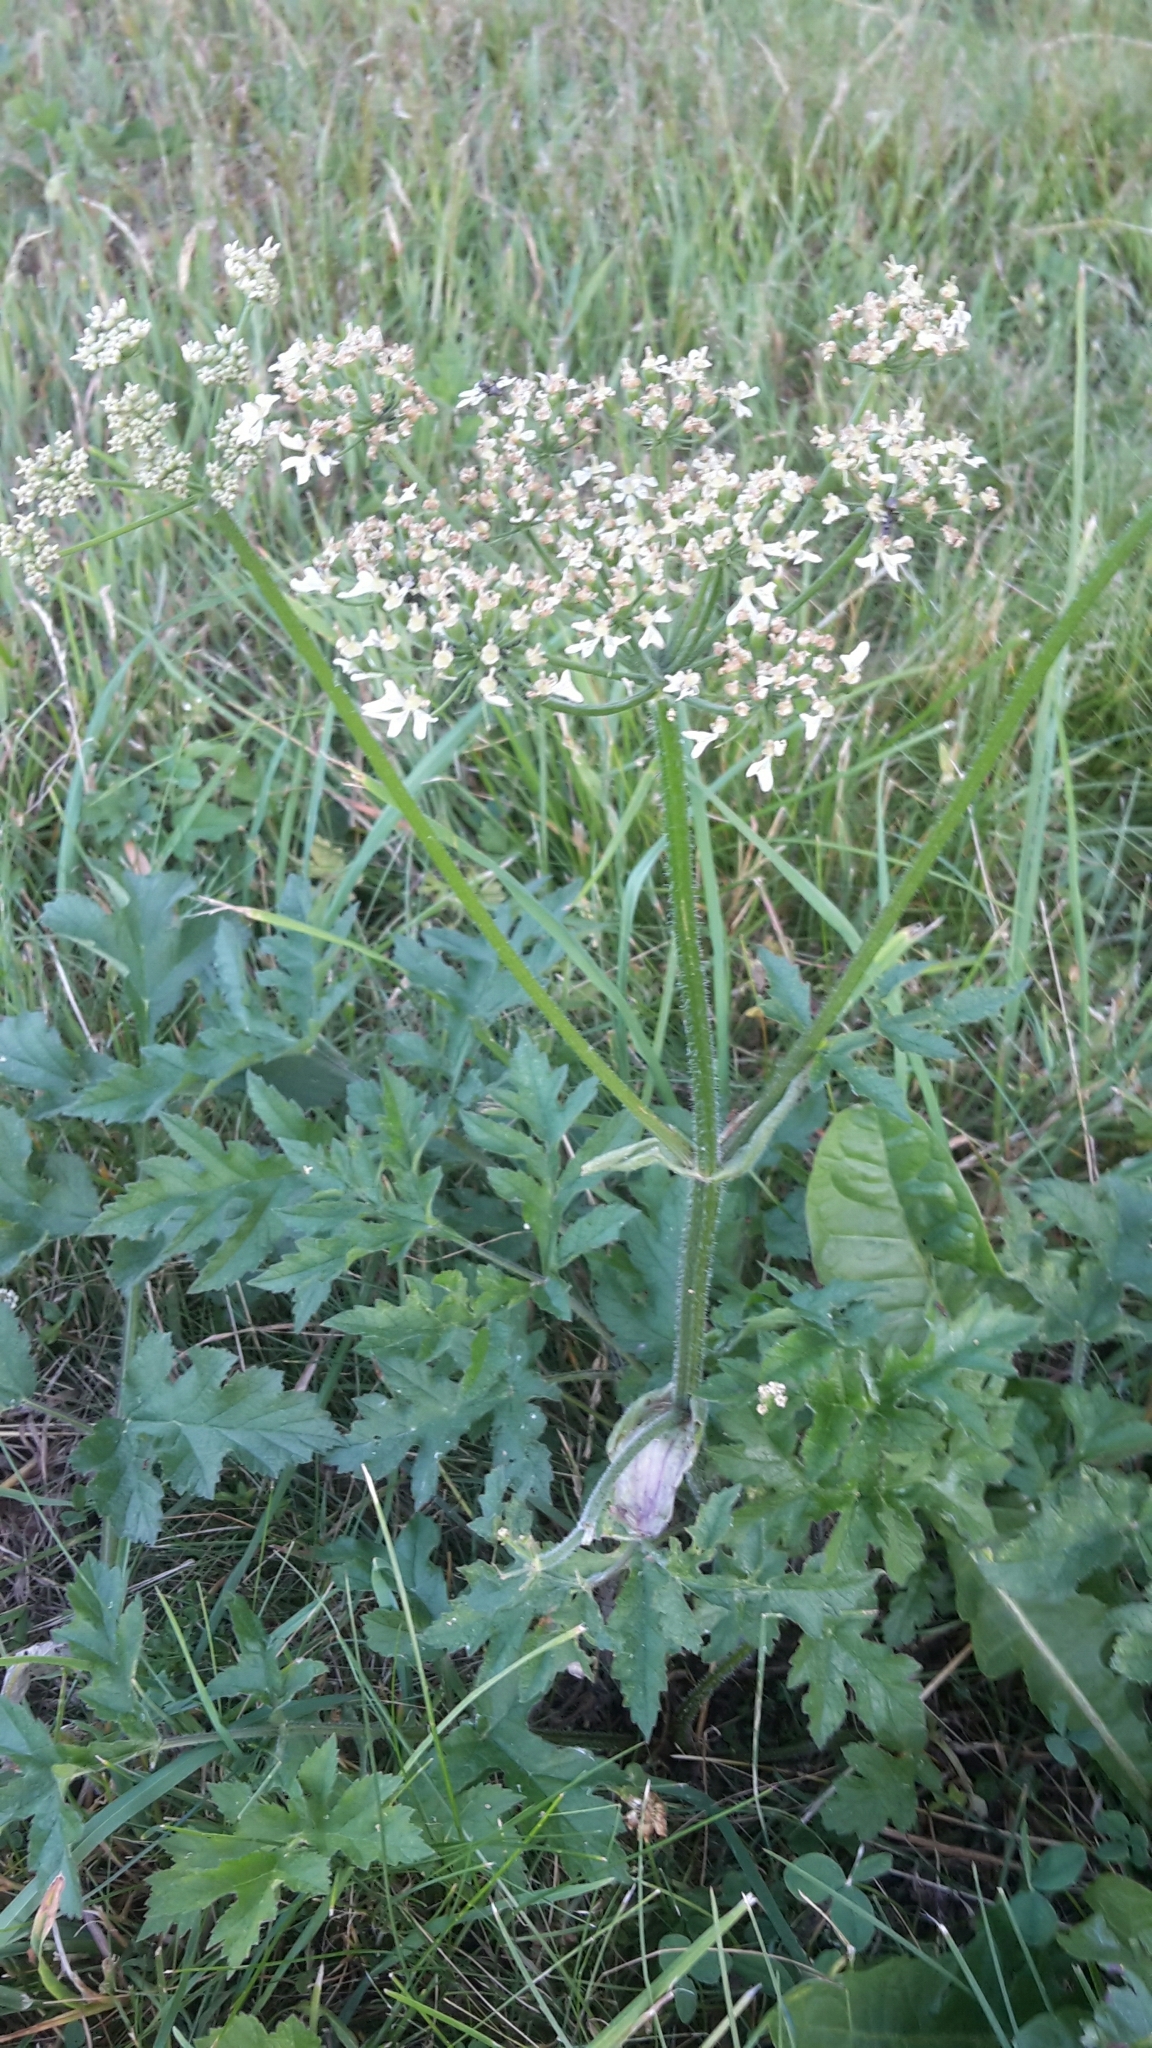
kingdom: Plantae
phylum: Tracheophyta
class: Magnoliopsida
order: Apiales
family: Apiaceae
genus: Heracleum
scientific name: Heracleum sphondylium
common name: Hogweed
